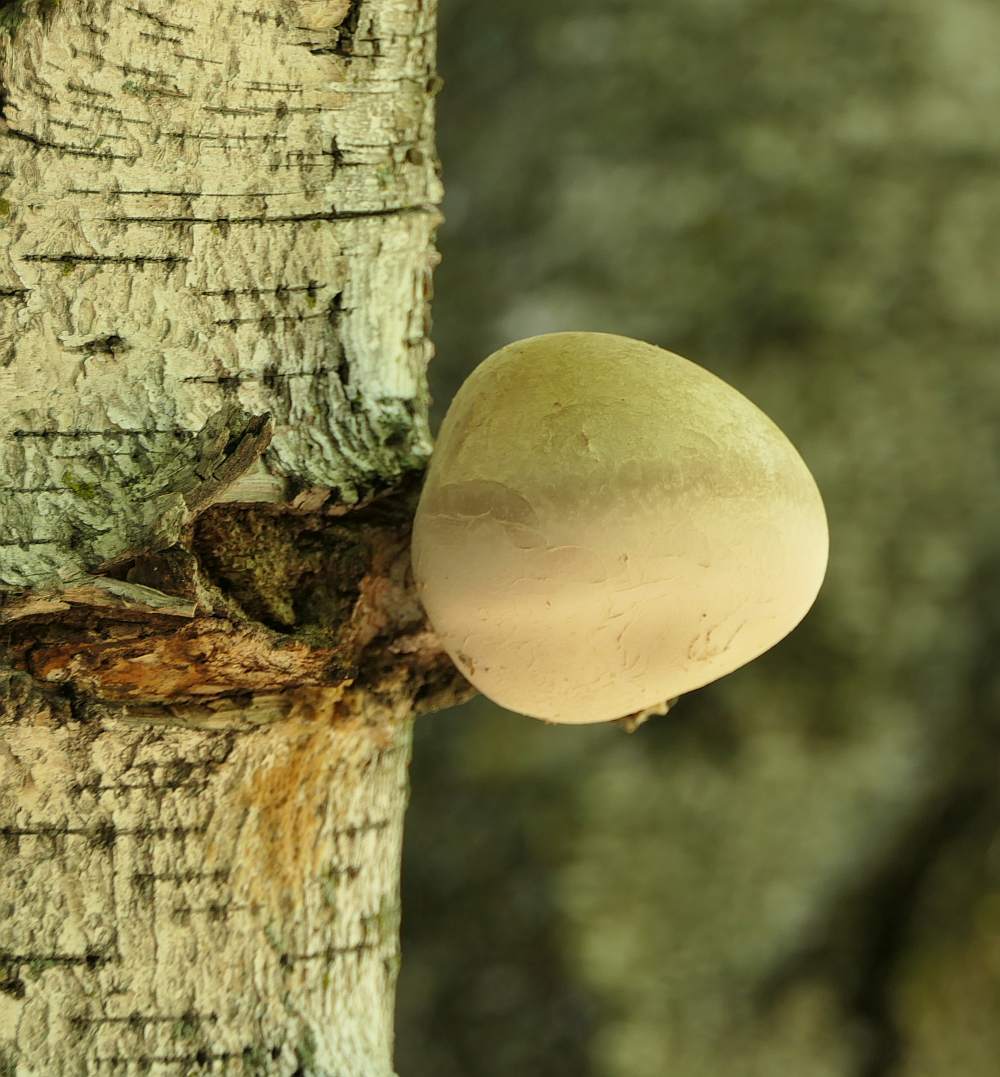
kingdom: Fungi
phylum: Basidiomycota
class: Agaricomycetes
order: Polyporales
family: Fomitopsidaceae
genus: Fomitopsis
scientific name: Fomitopsis betulina
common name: Birch polypore
